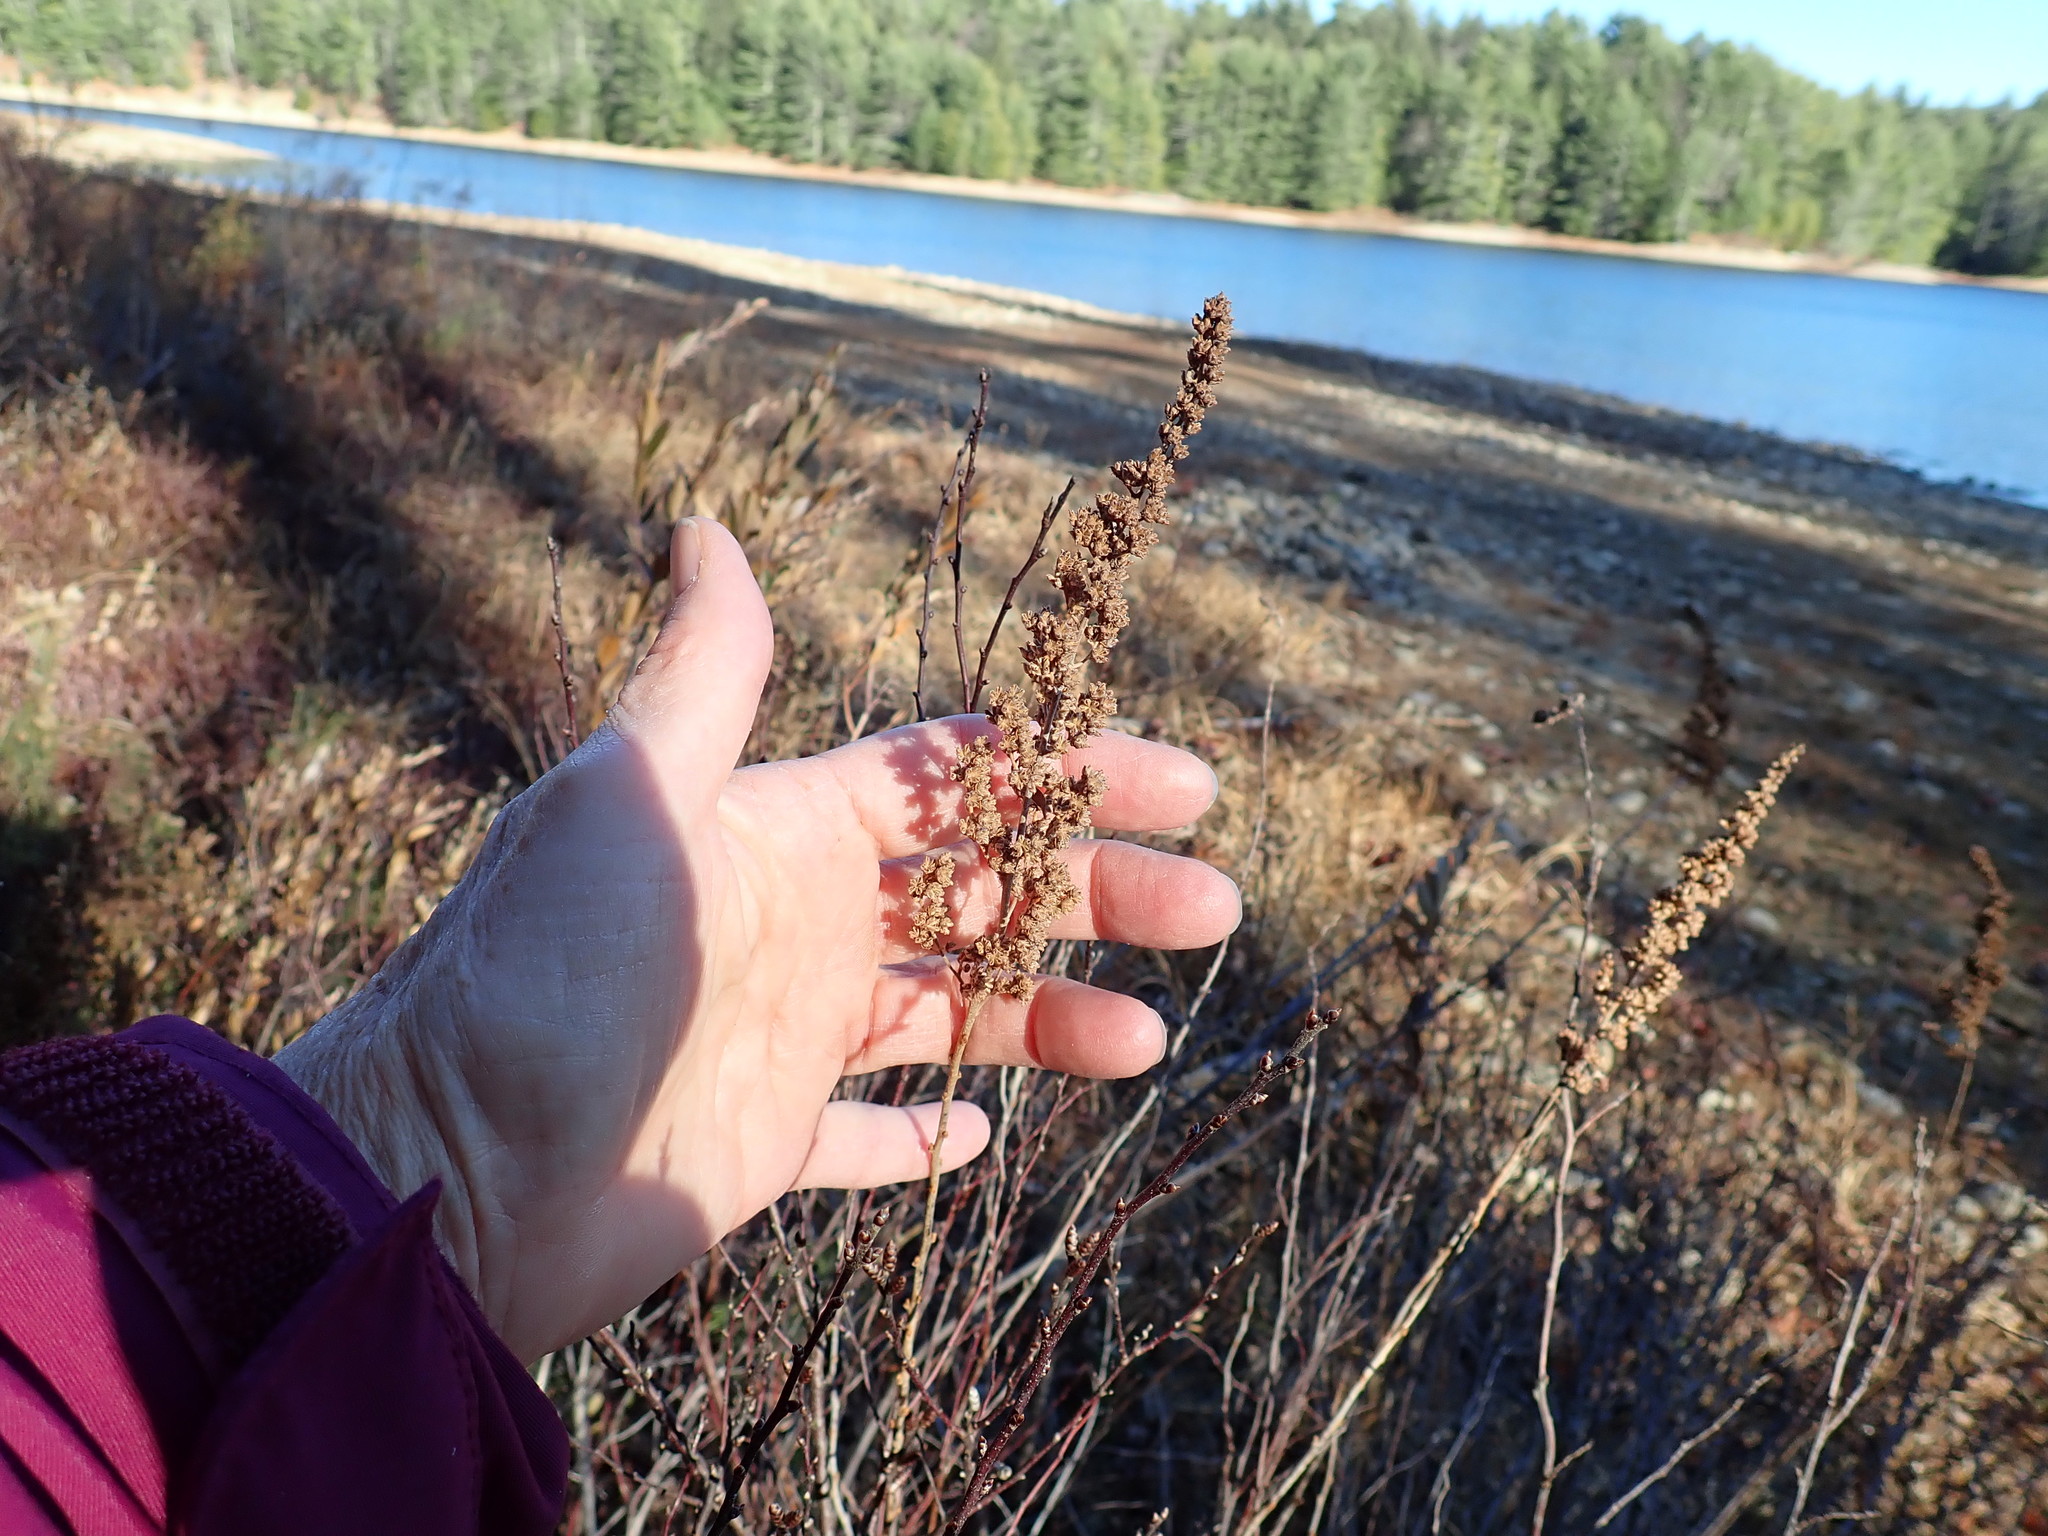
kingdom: Plantae
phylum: Tracheophyta
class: Magnoliopsida
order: Rosales
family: Rosaceae
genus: Spiraea
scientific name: Spiraea tomentosa
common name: Hardhack
